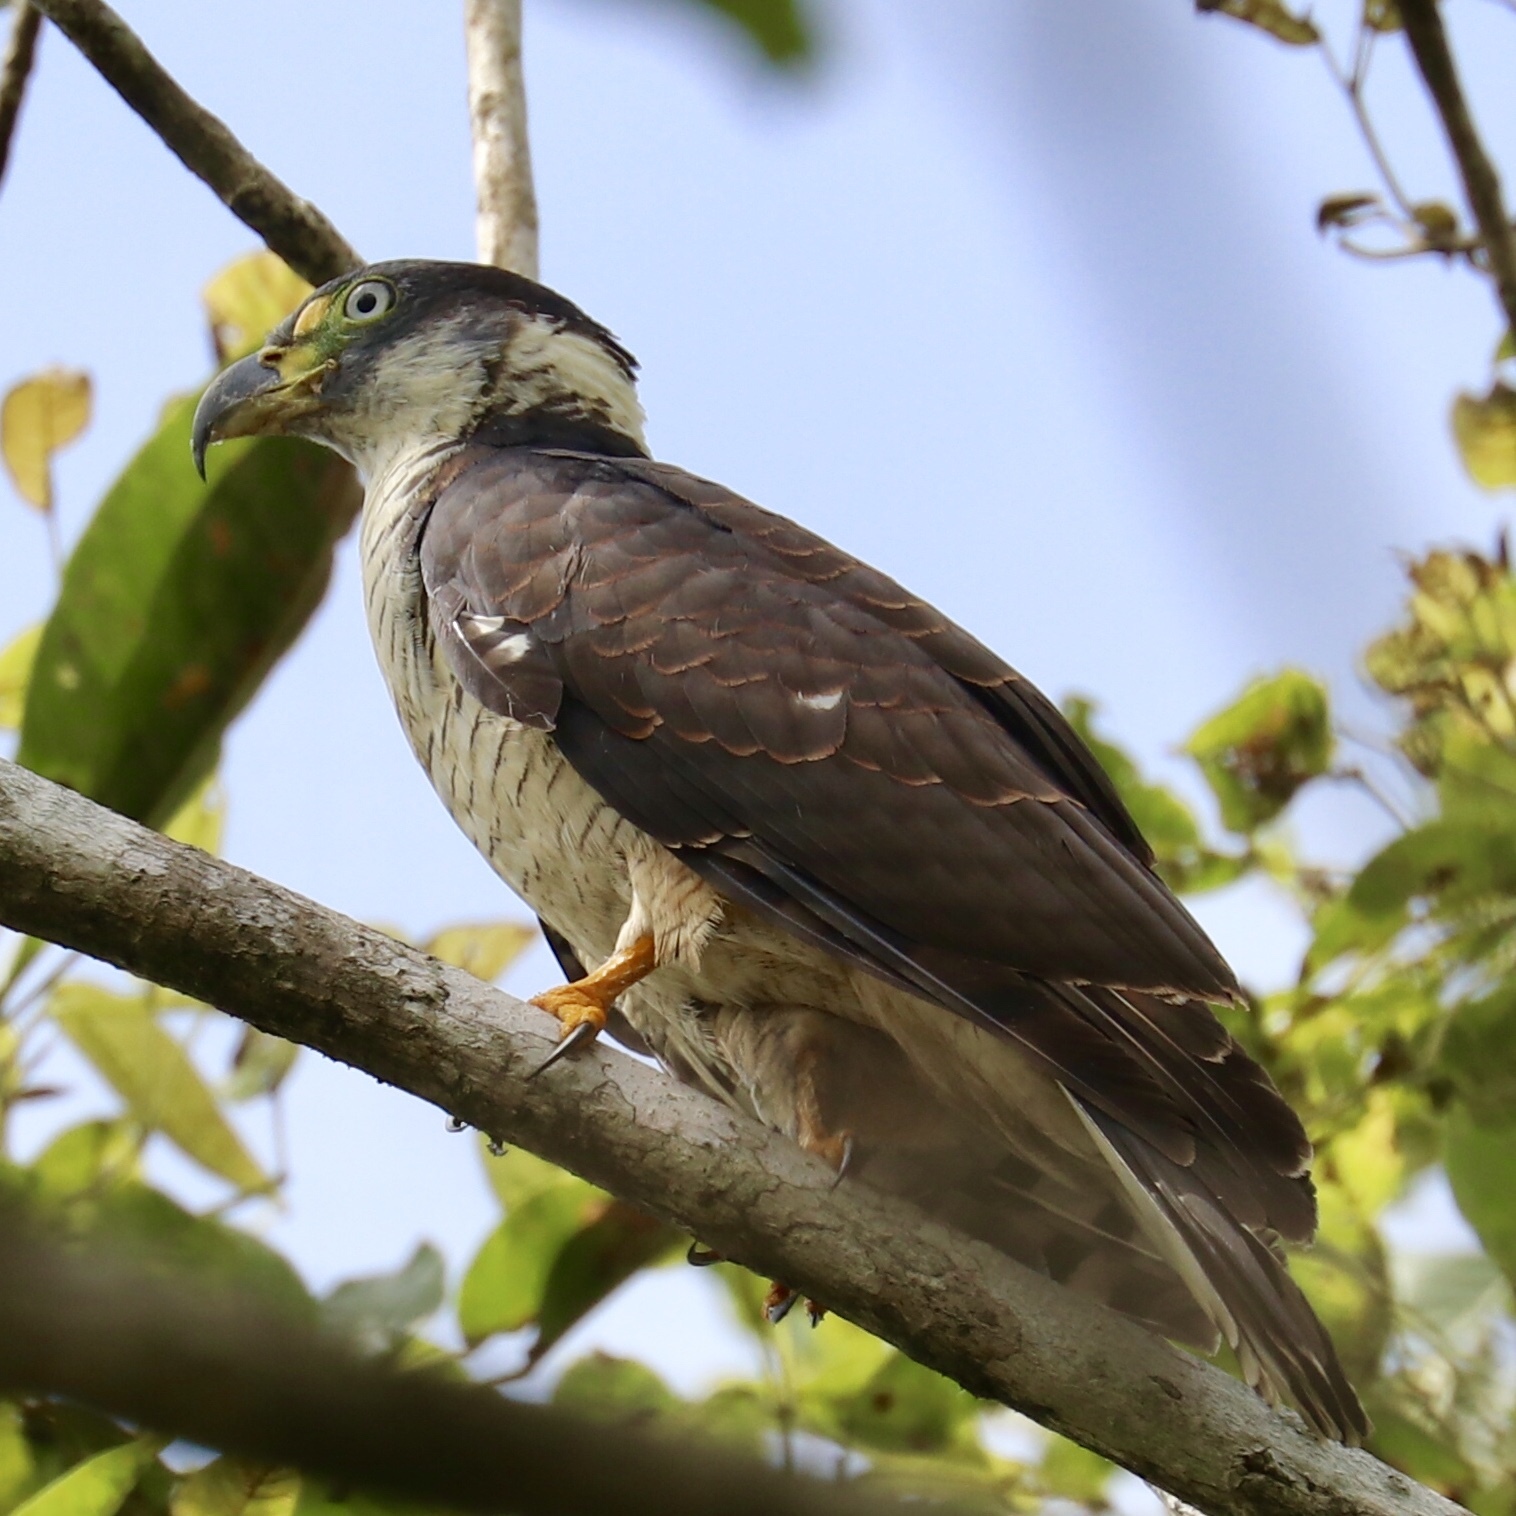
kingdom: Animalia
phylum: Chordata
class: Aves
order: Accipitriformes
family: Accipitridae
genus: Chondrohierax
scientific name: Chondrohierax uncinatus
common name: Hook-billed kite
